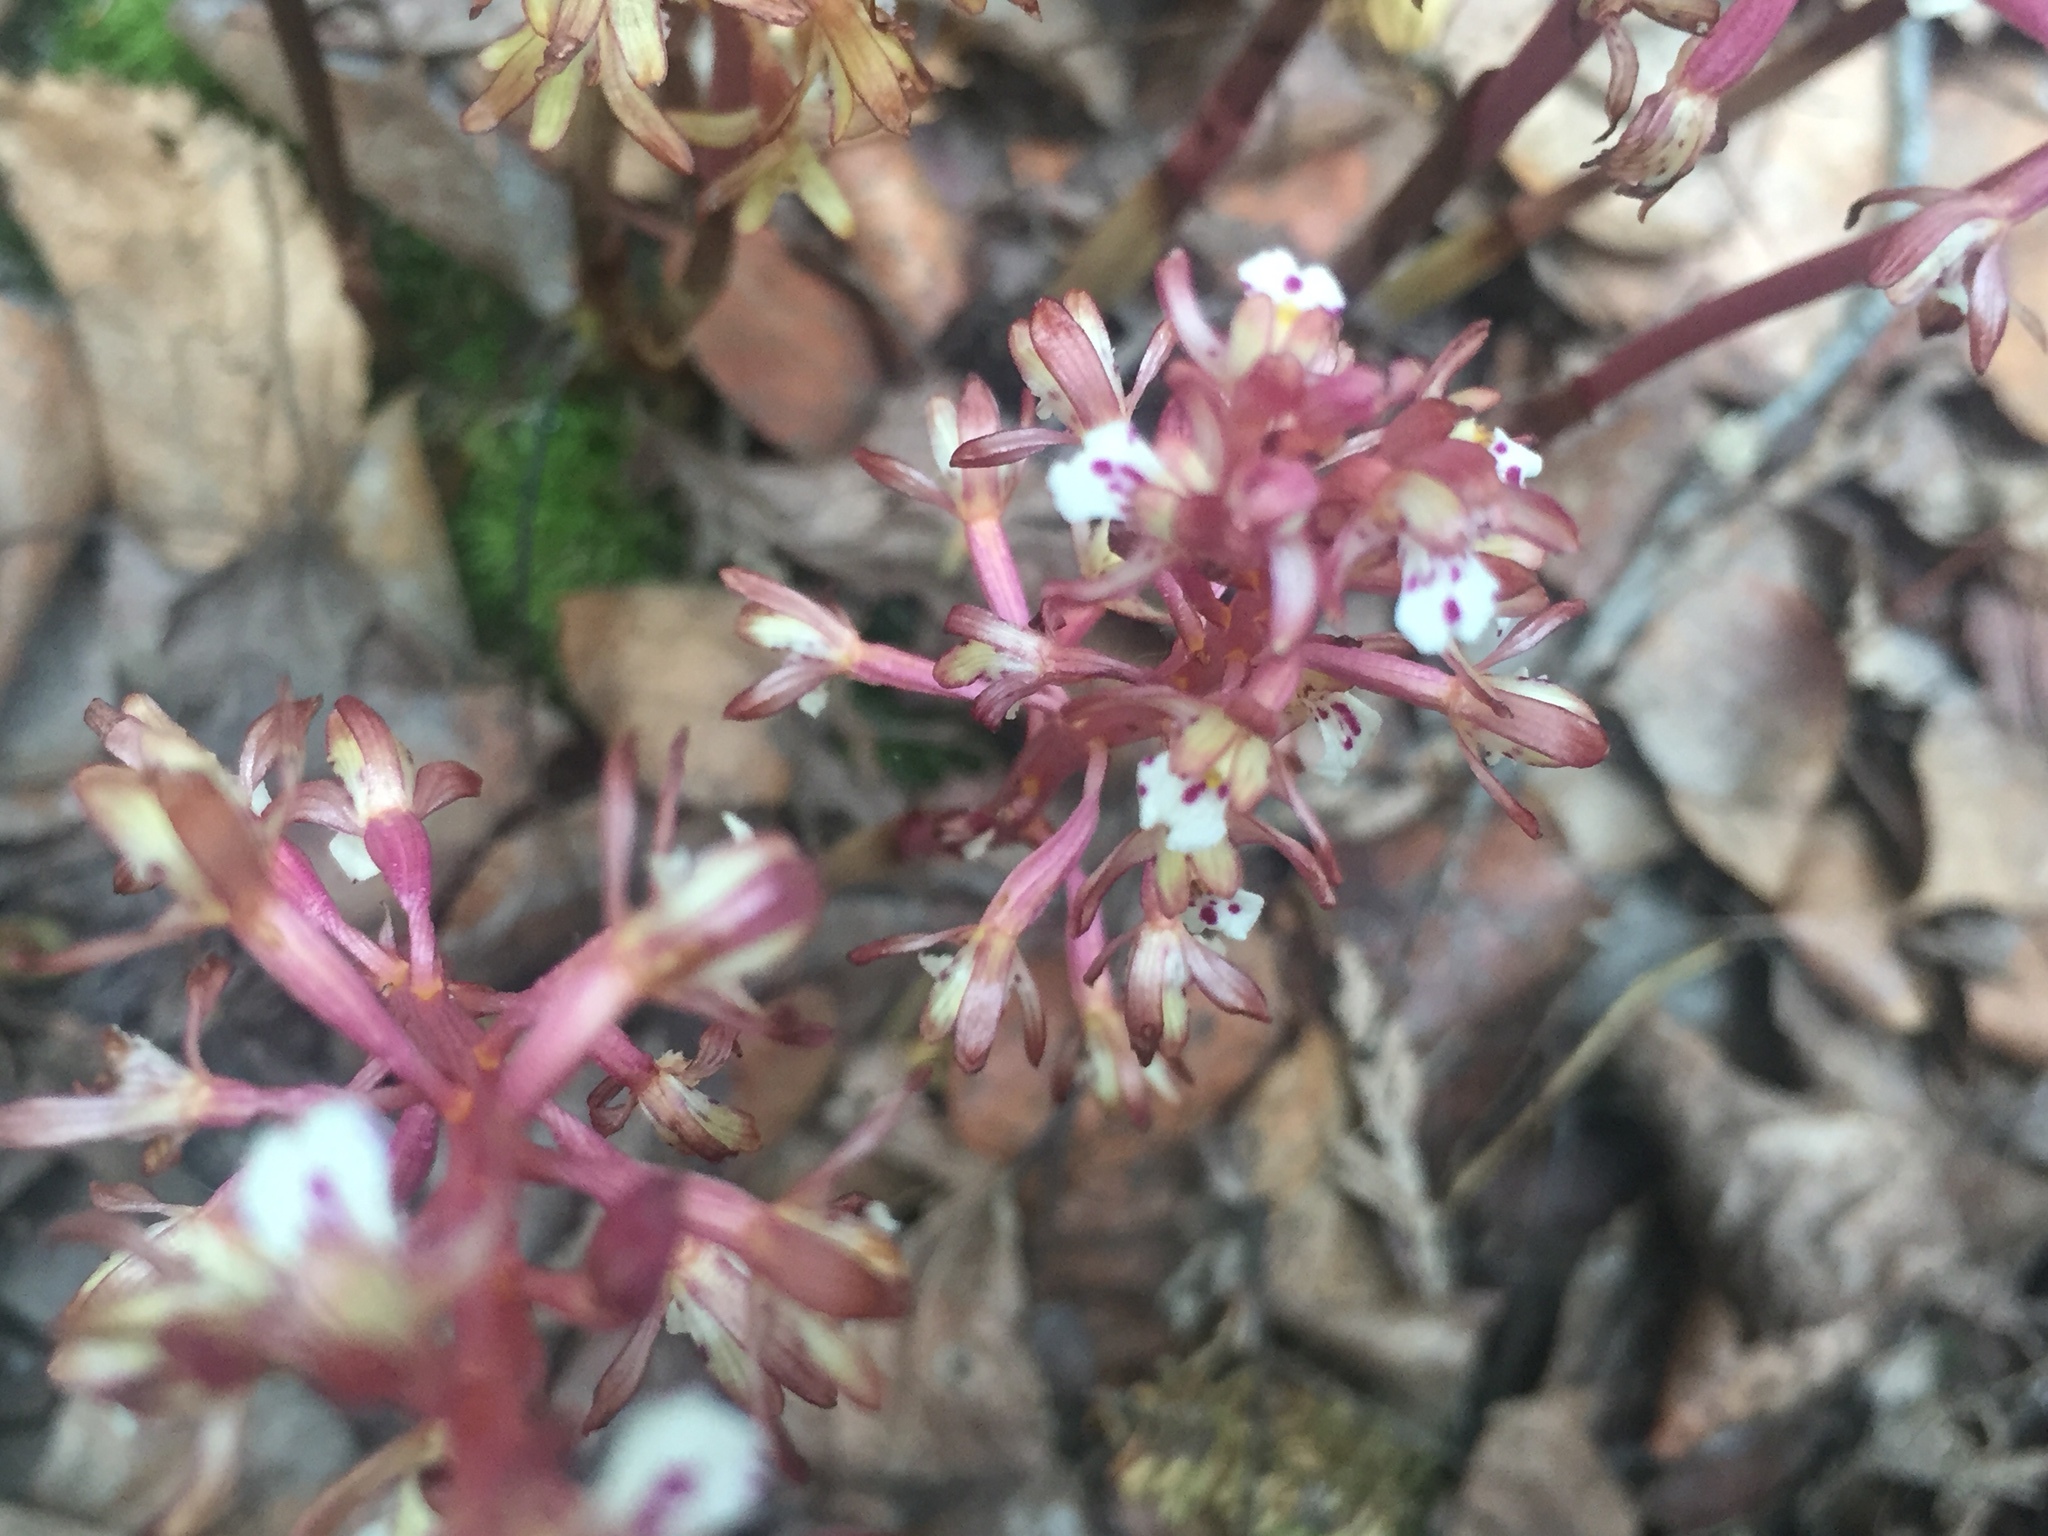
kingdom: Plantae
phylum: Tracheophyta
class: Liliopsida
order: Asparagales
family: Orchidaceae
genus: Corallorhiza
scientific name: Corallorhiza maculata
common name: Spotted coralroot
